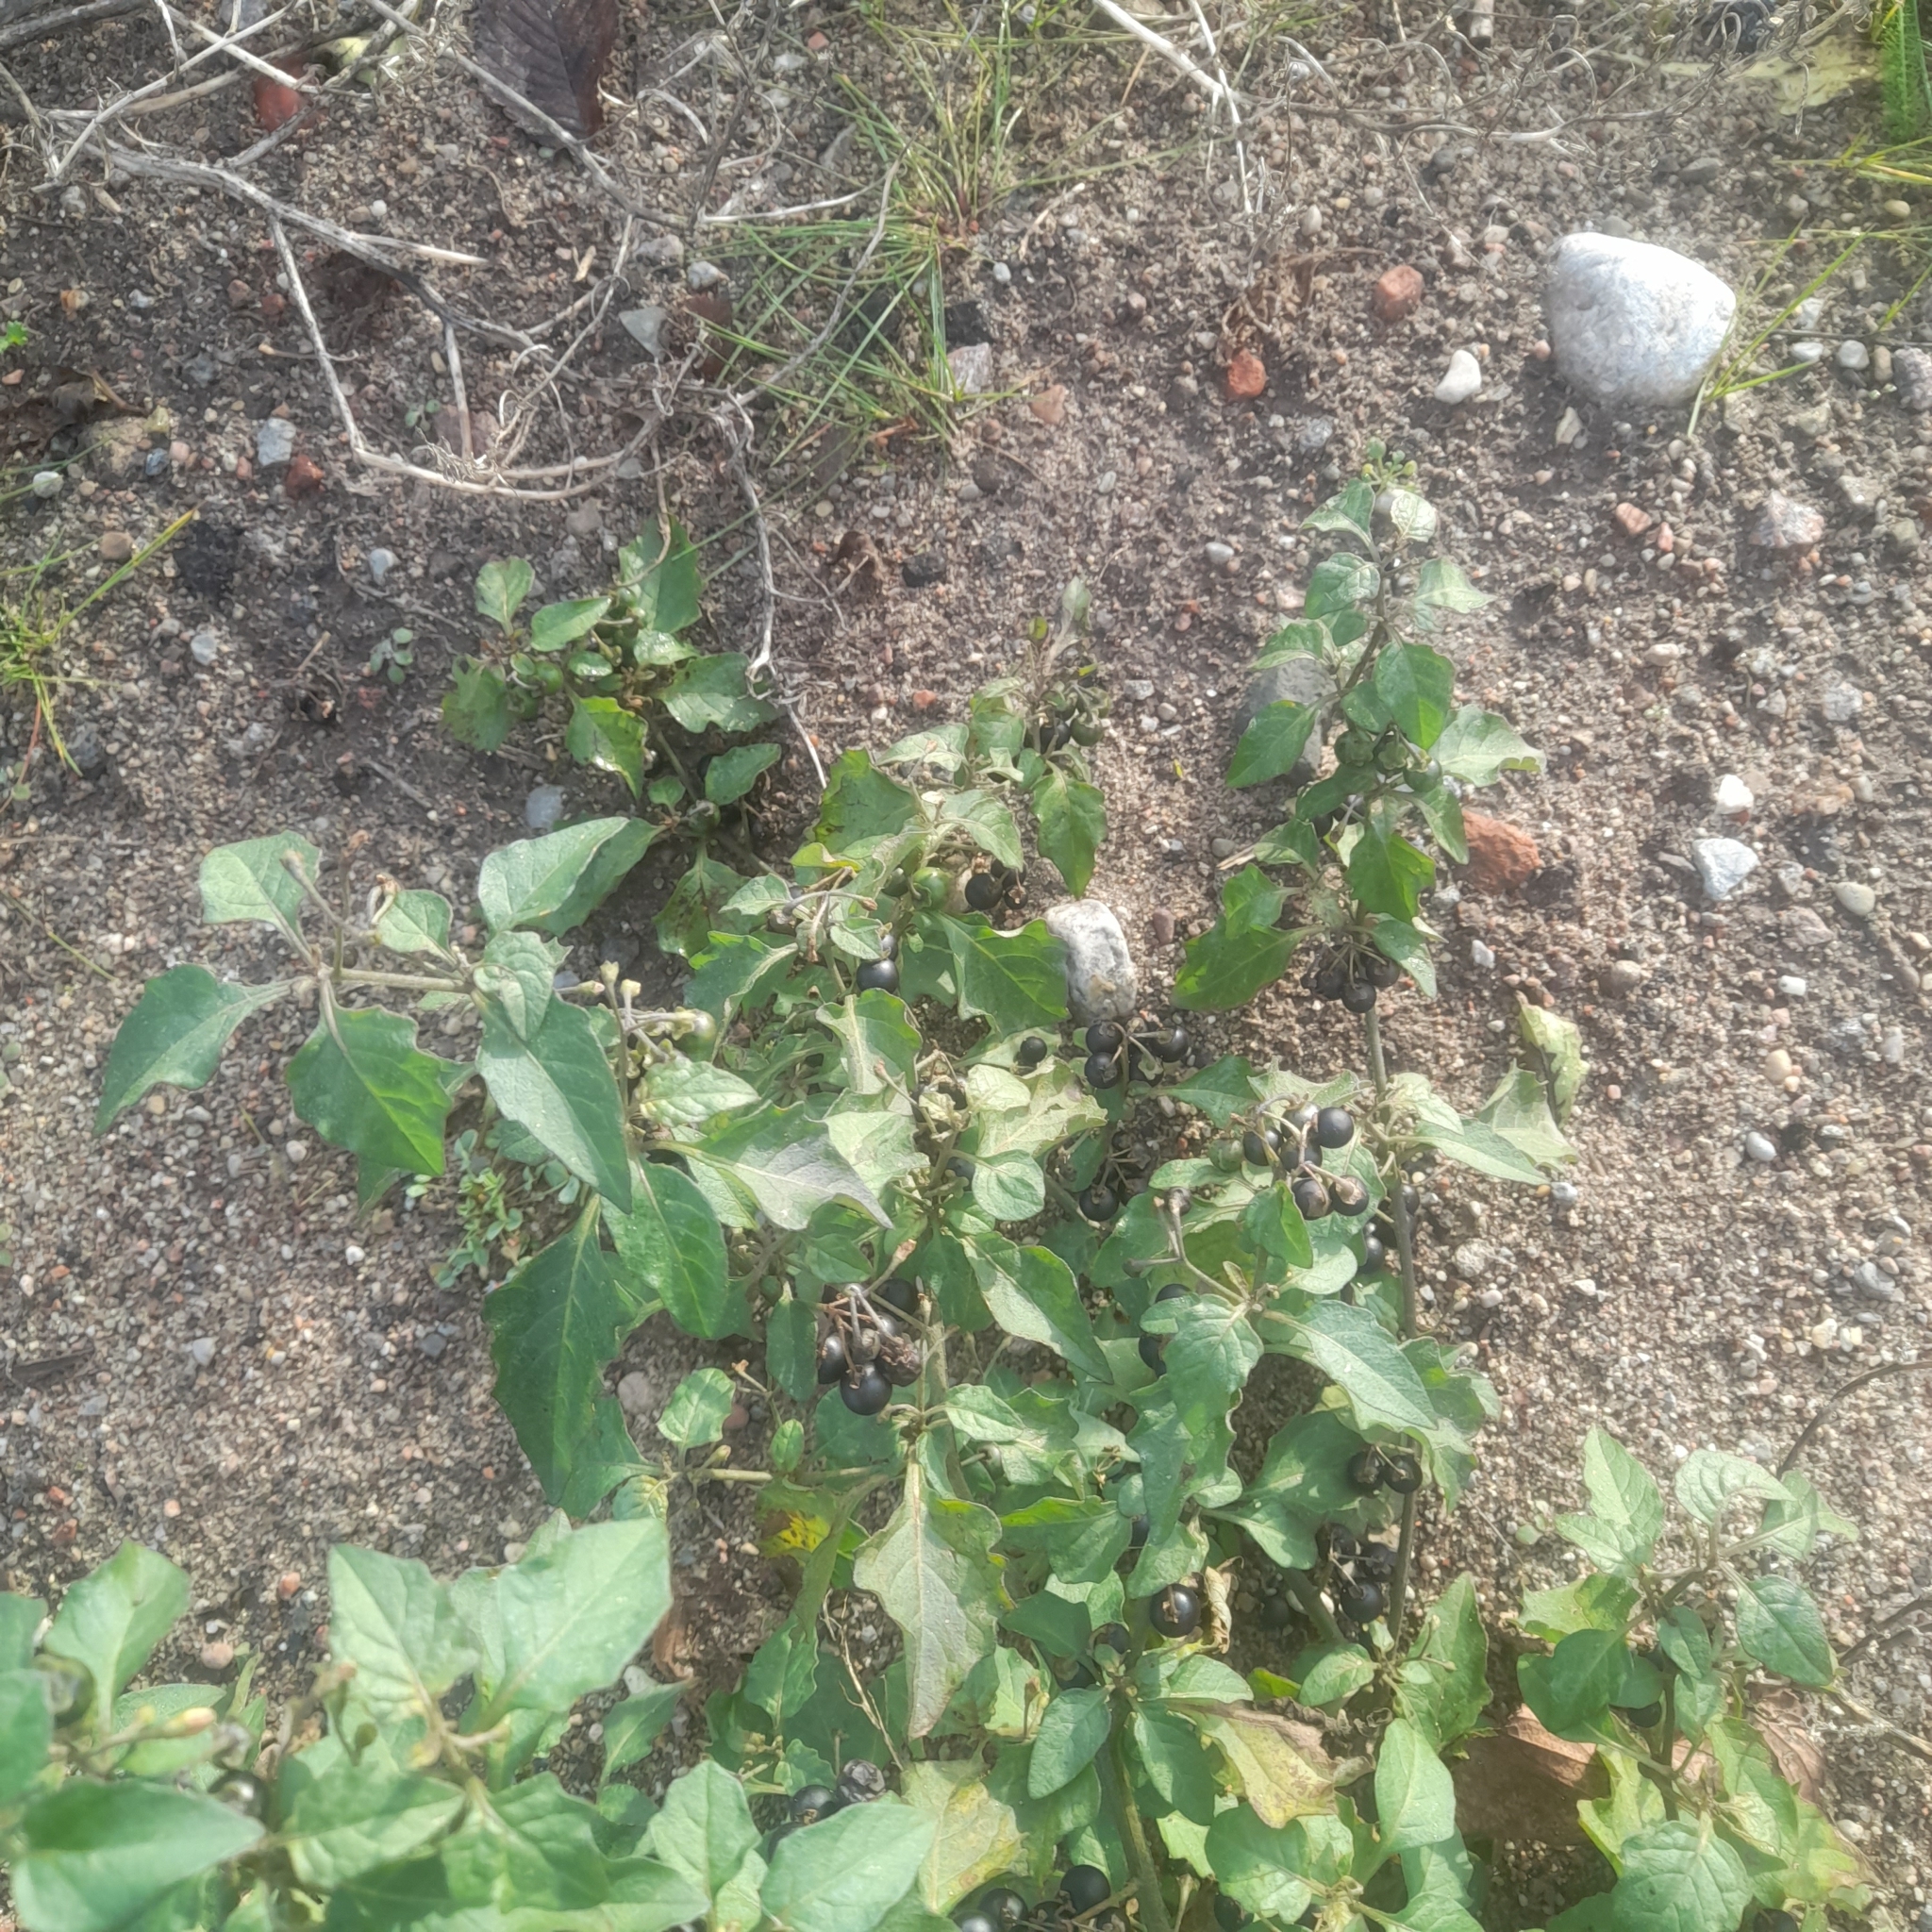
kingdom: Plantae
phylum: Tracheophyta
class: Magnoliopsida
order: Solanales
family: Solanaceae
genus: Solanum
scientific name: Solanum nigrum
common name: Black nightshade
